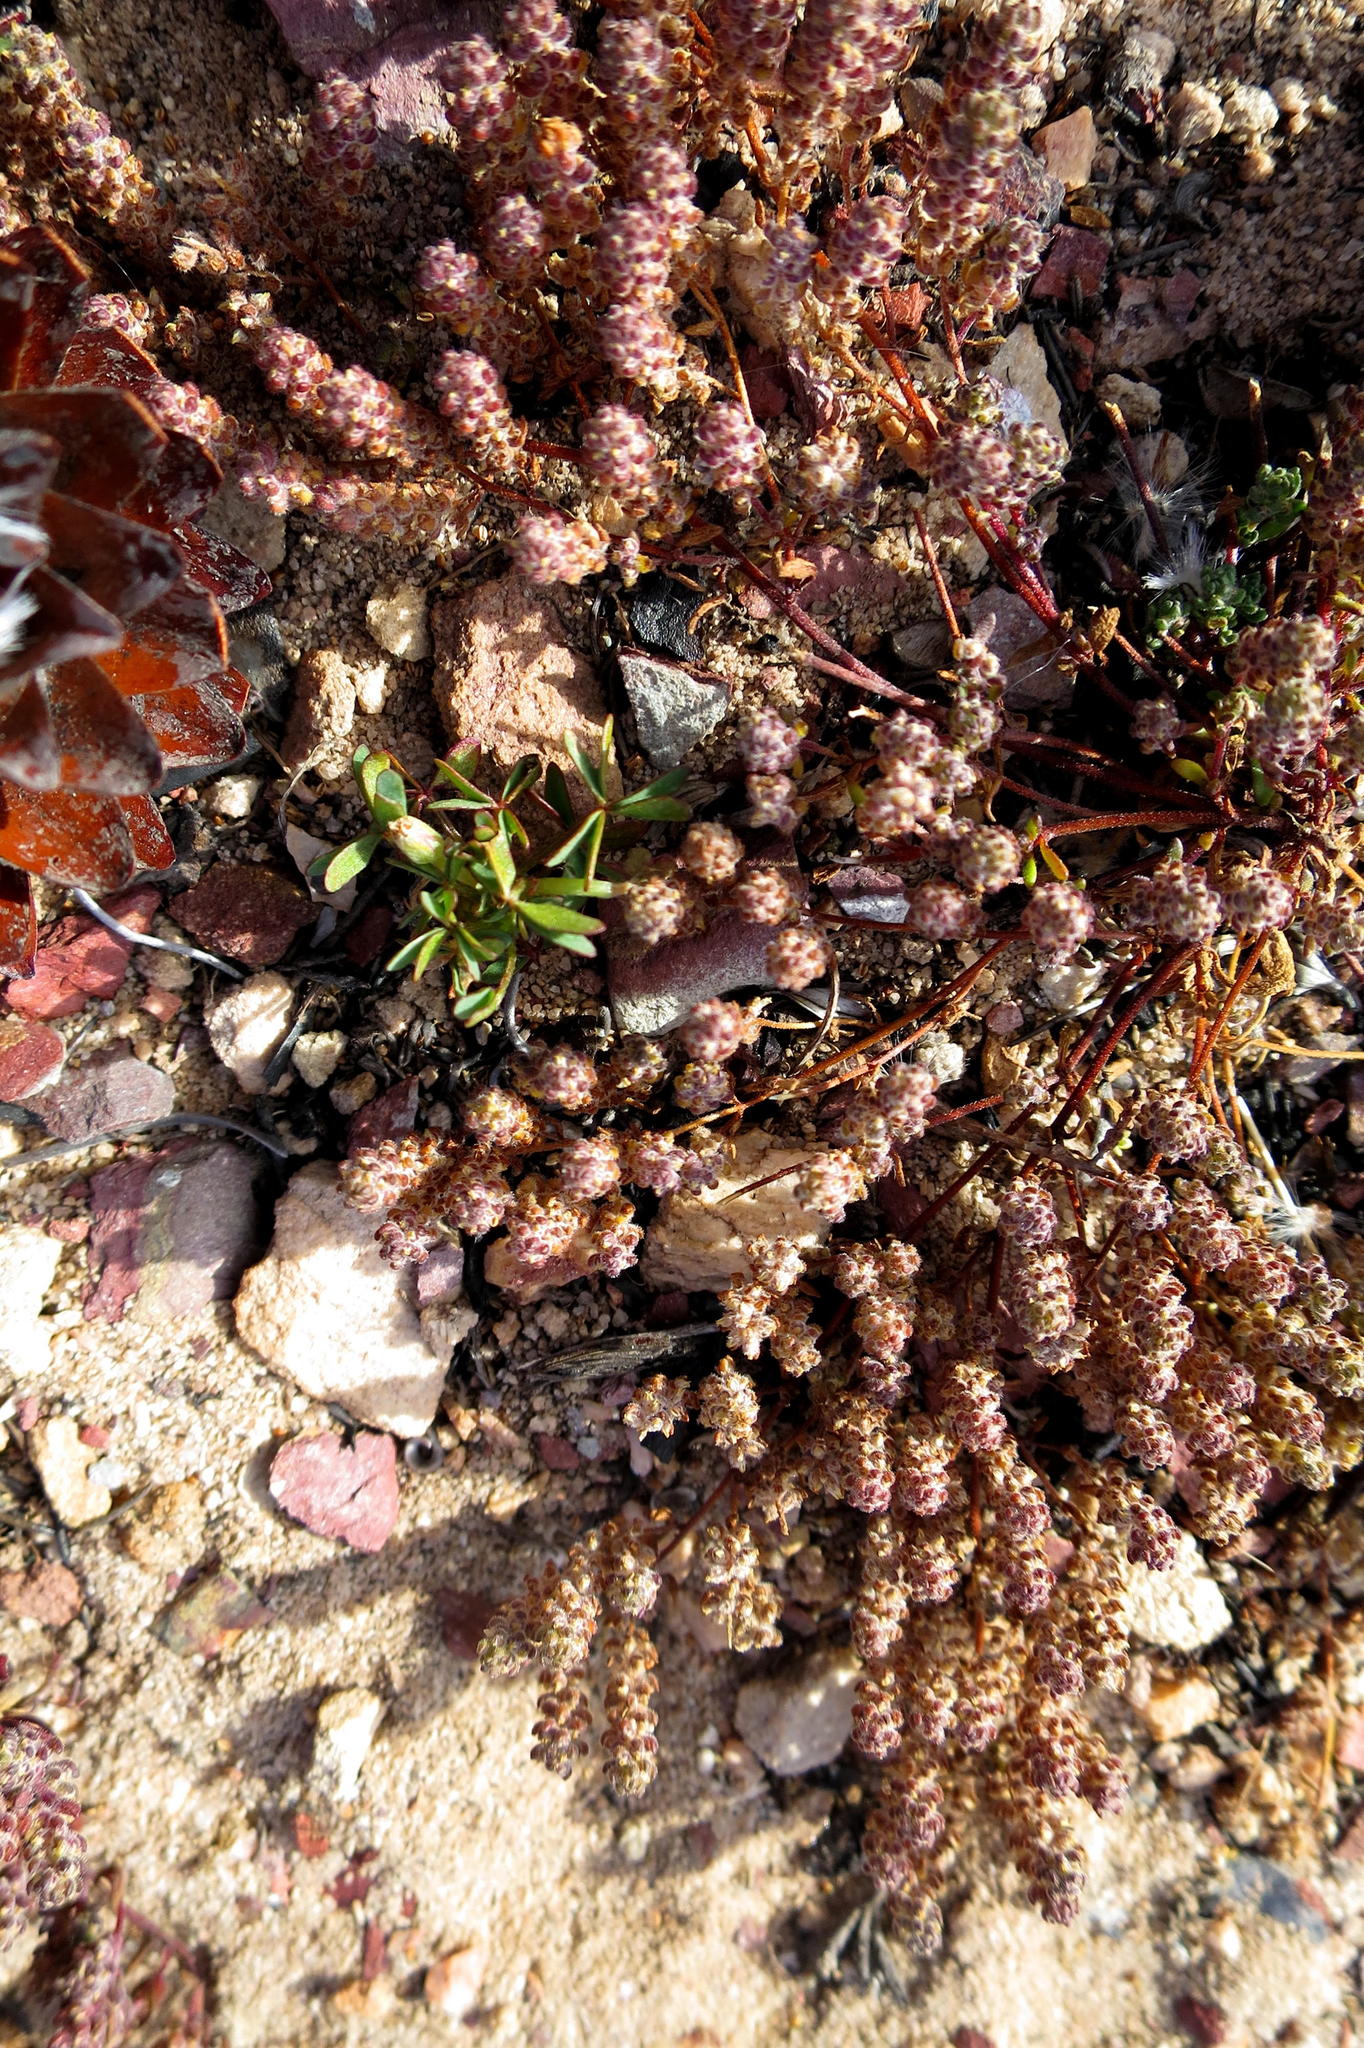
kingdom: Plantae
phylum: Tracheophyta
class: Magnoliopsida
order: Oxalidales
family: Oxalidaceae
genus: Oxalis
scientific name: Oxalis heterophylla
